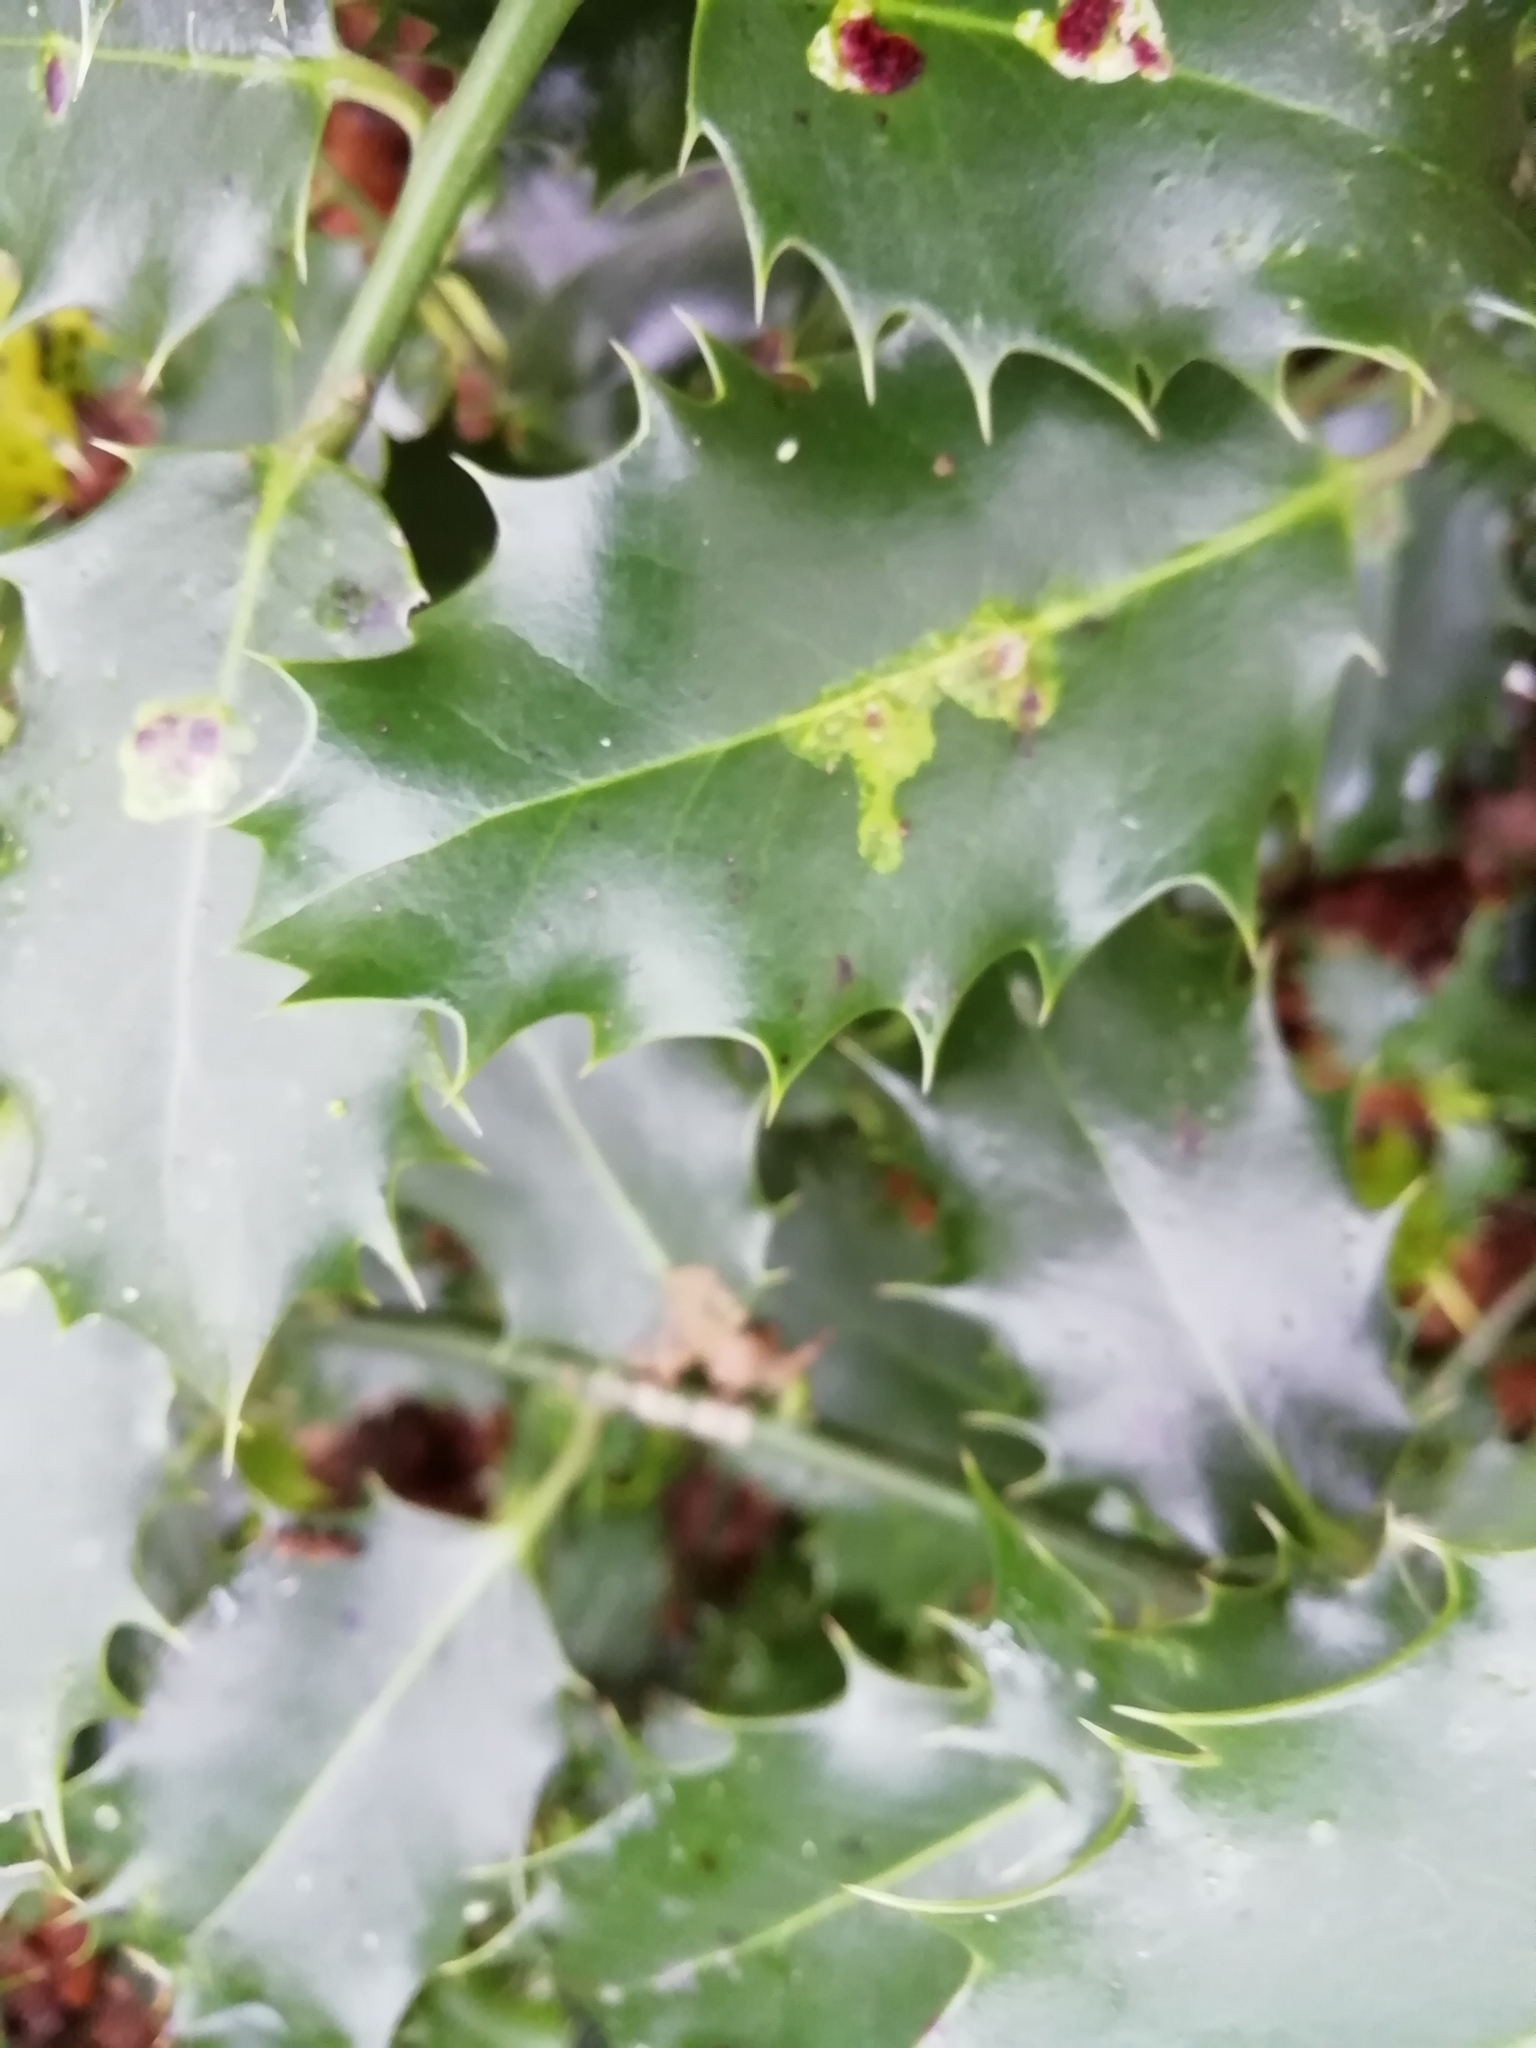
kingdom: Animalia
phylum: Arthropoda
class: Insecta
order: Diptera
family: Agromyzidae
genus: Phytomyza
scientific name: Phytomyza ilicis
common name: Holly leafminer
